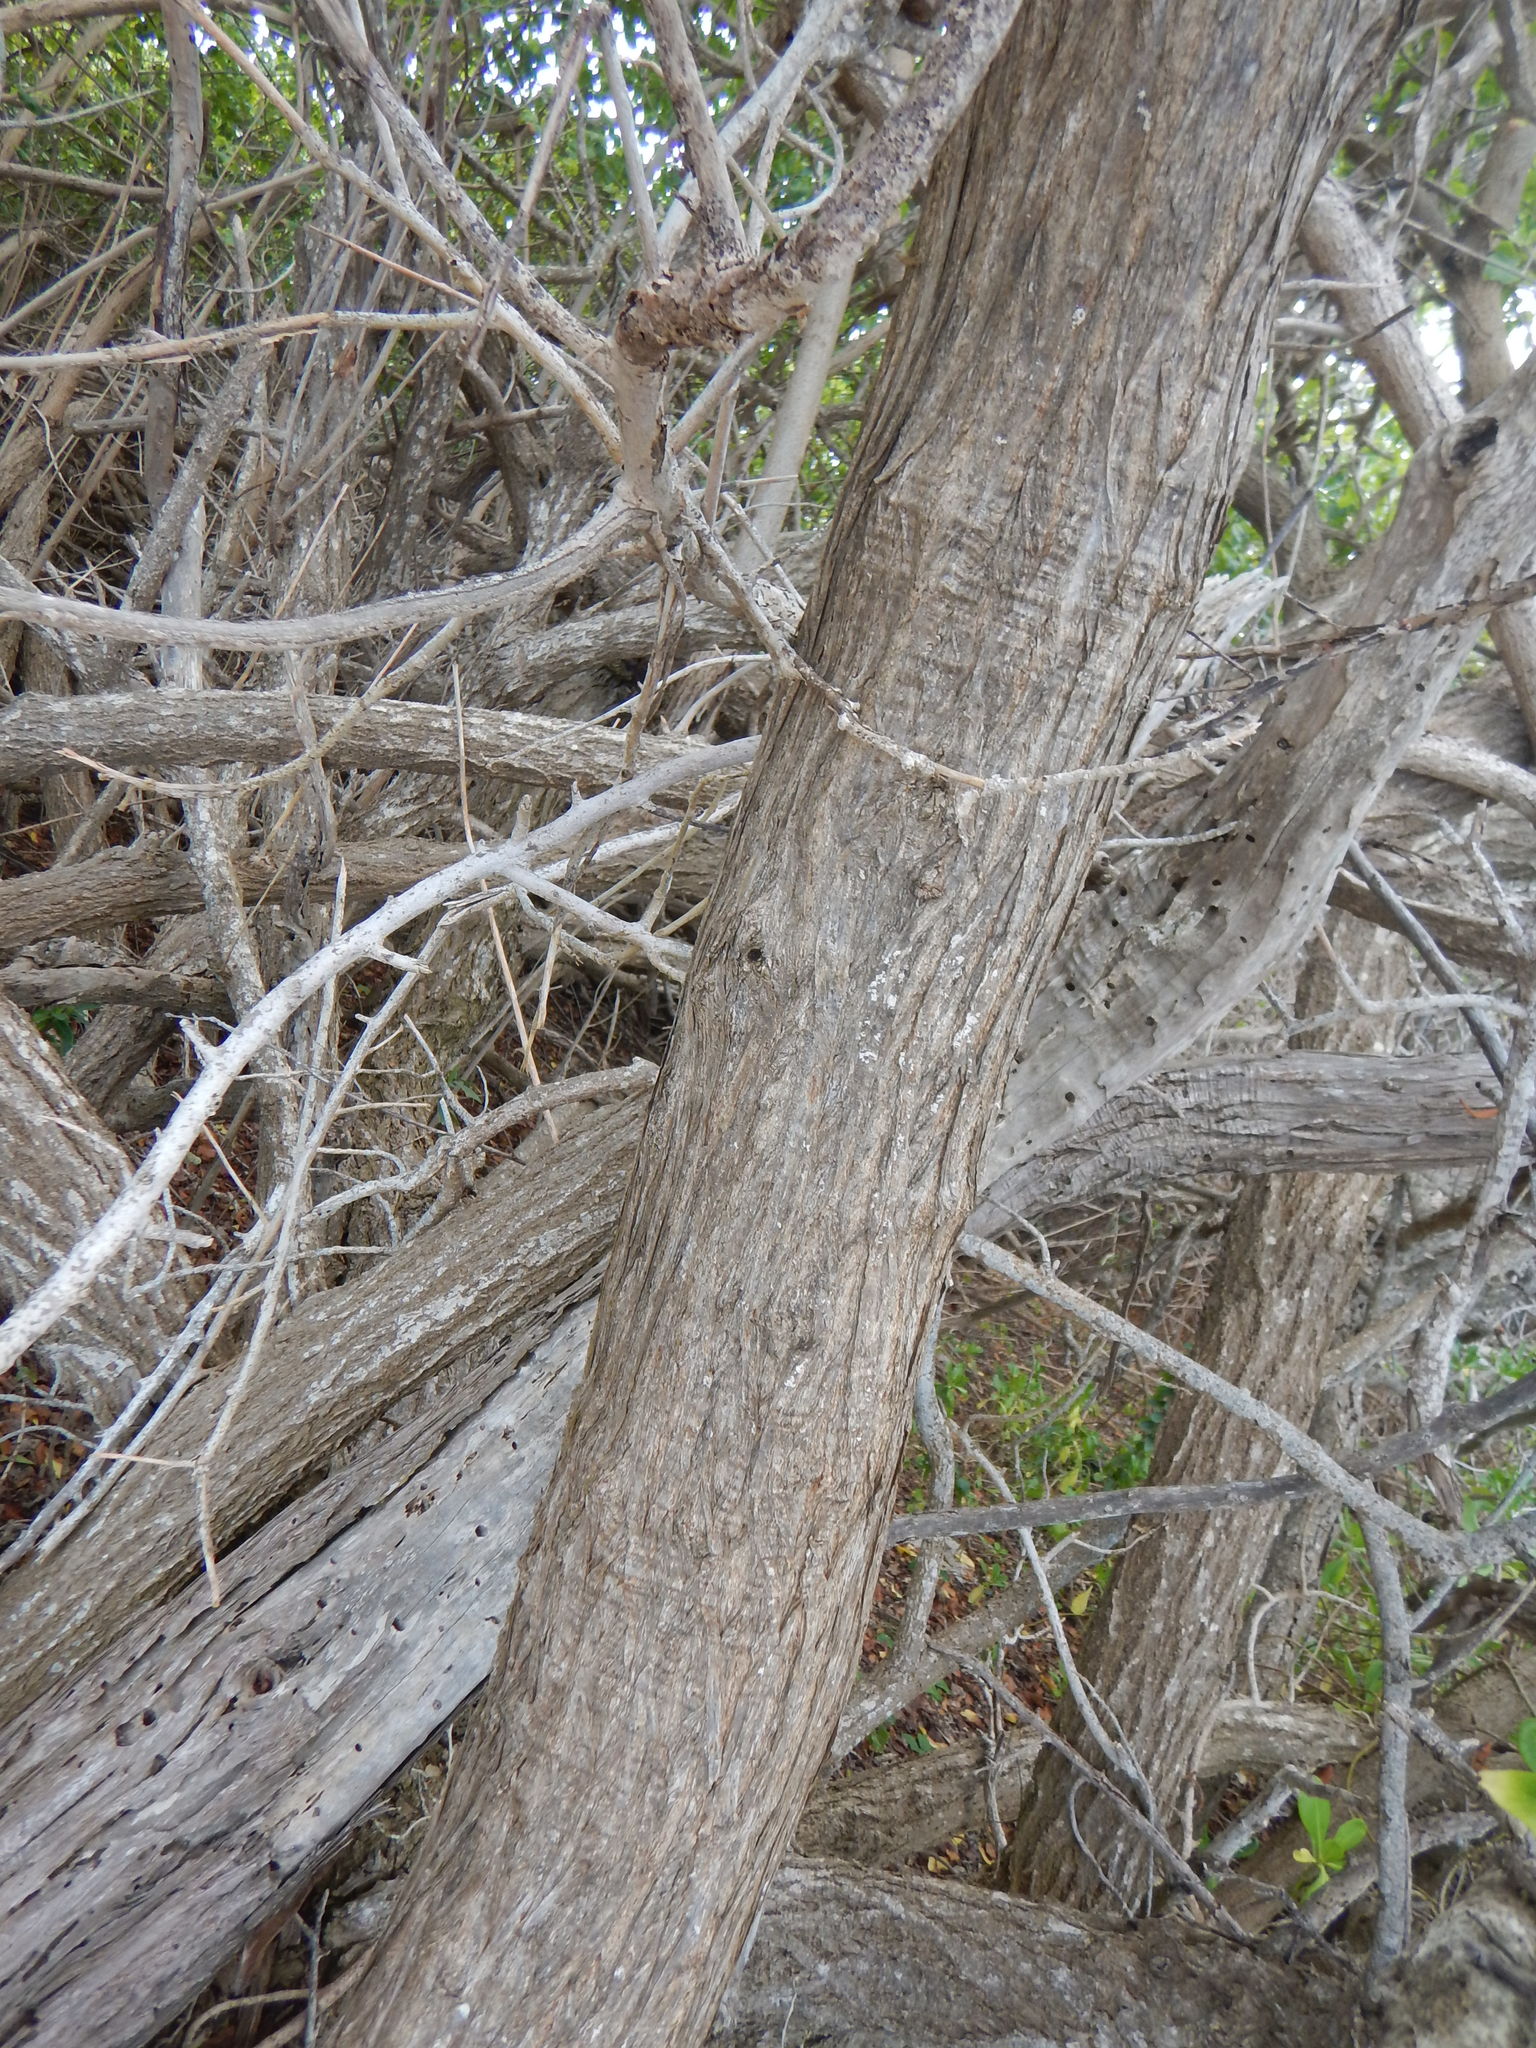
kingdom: Plantae
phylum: Tracheophyta
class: Magnoliopsida
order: Myrtales
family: Combretaceae
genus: Conocarpus
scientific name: Conocarpus erectus
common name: Button mangrove
